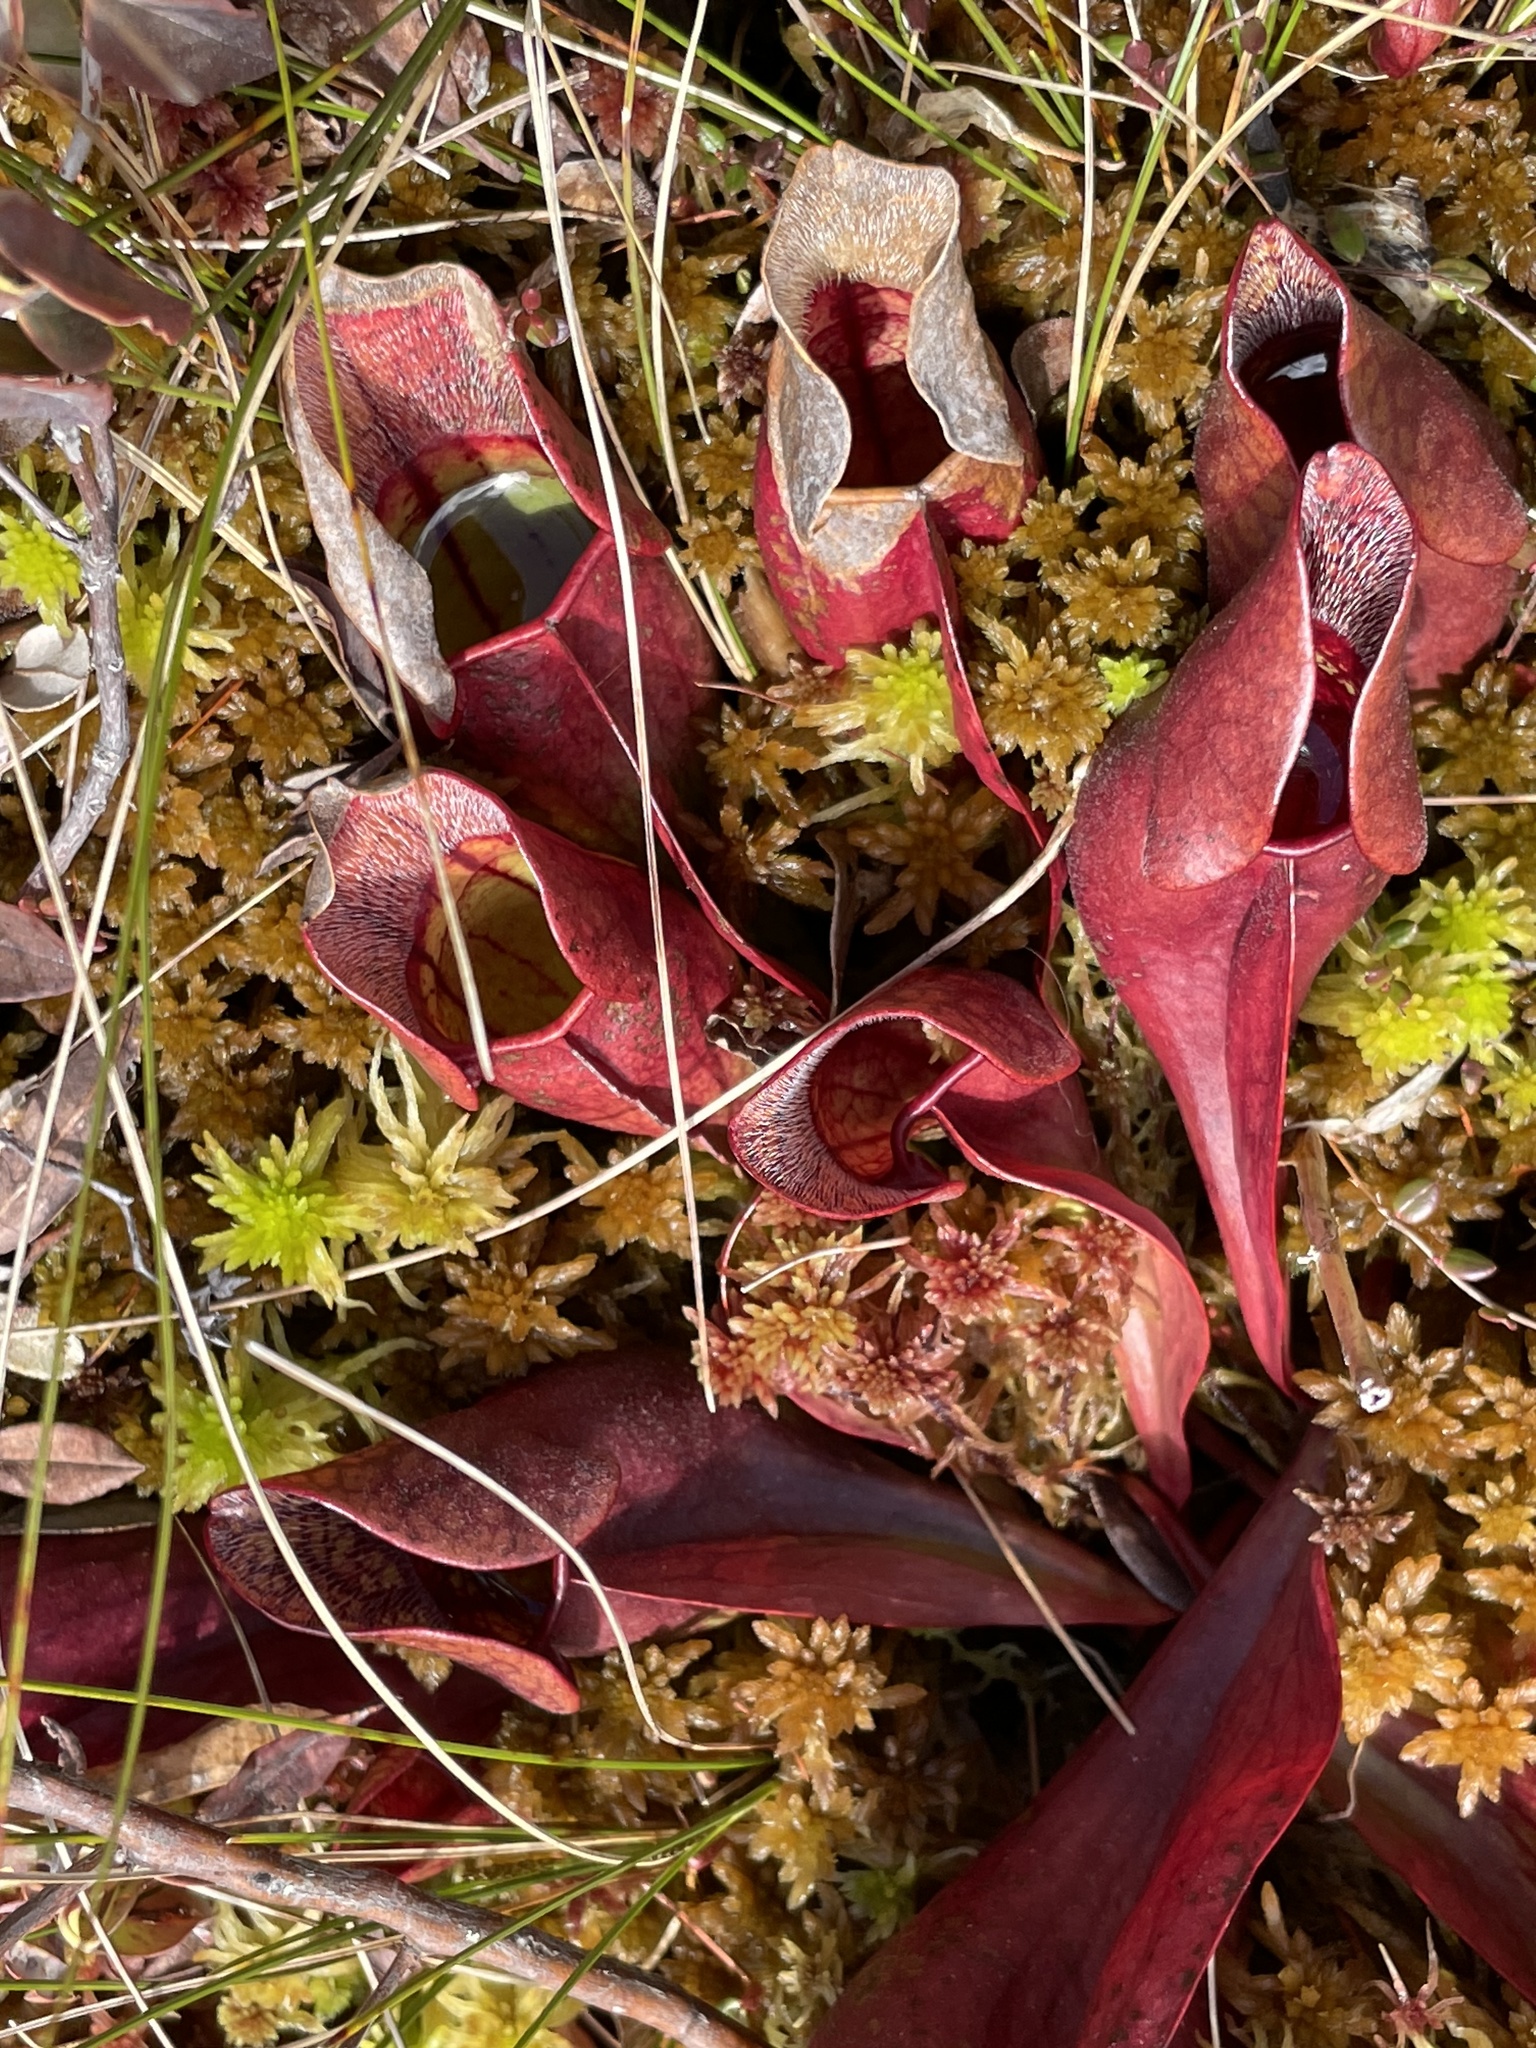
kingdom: Plantae
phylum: Tracheophyta
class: Magnoliopsida
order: Ericales
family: Sarraceniaceae
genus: Sarracenia
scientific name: Sarracenia purpurea
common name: Pitcherplant
